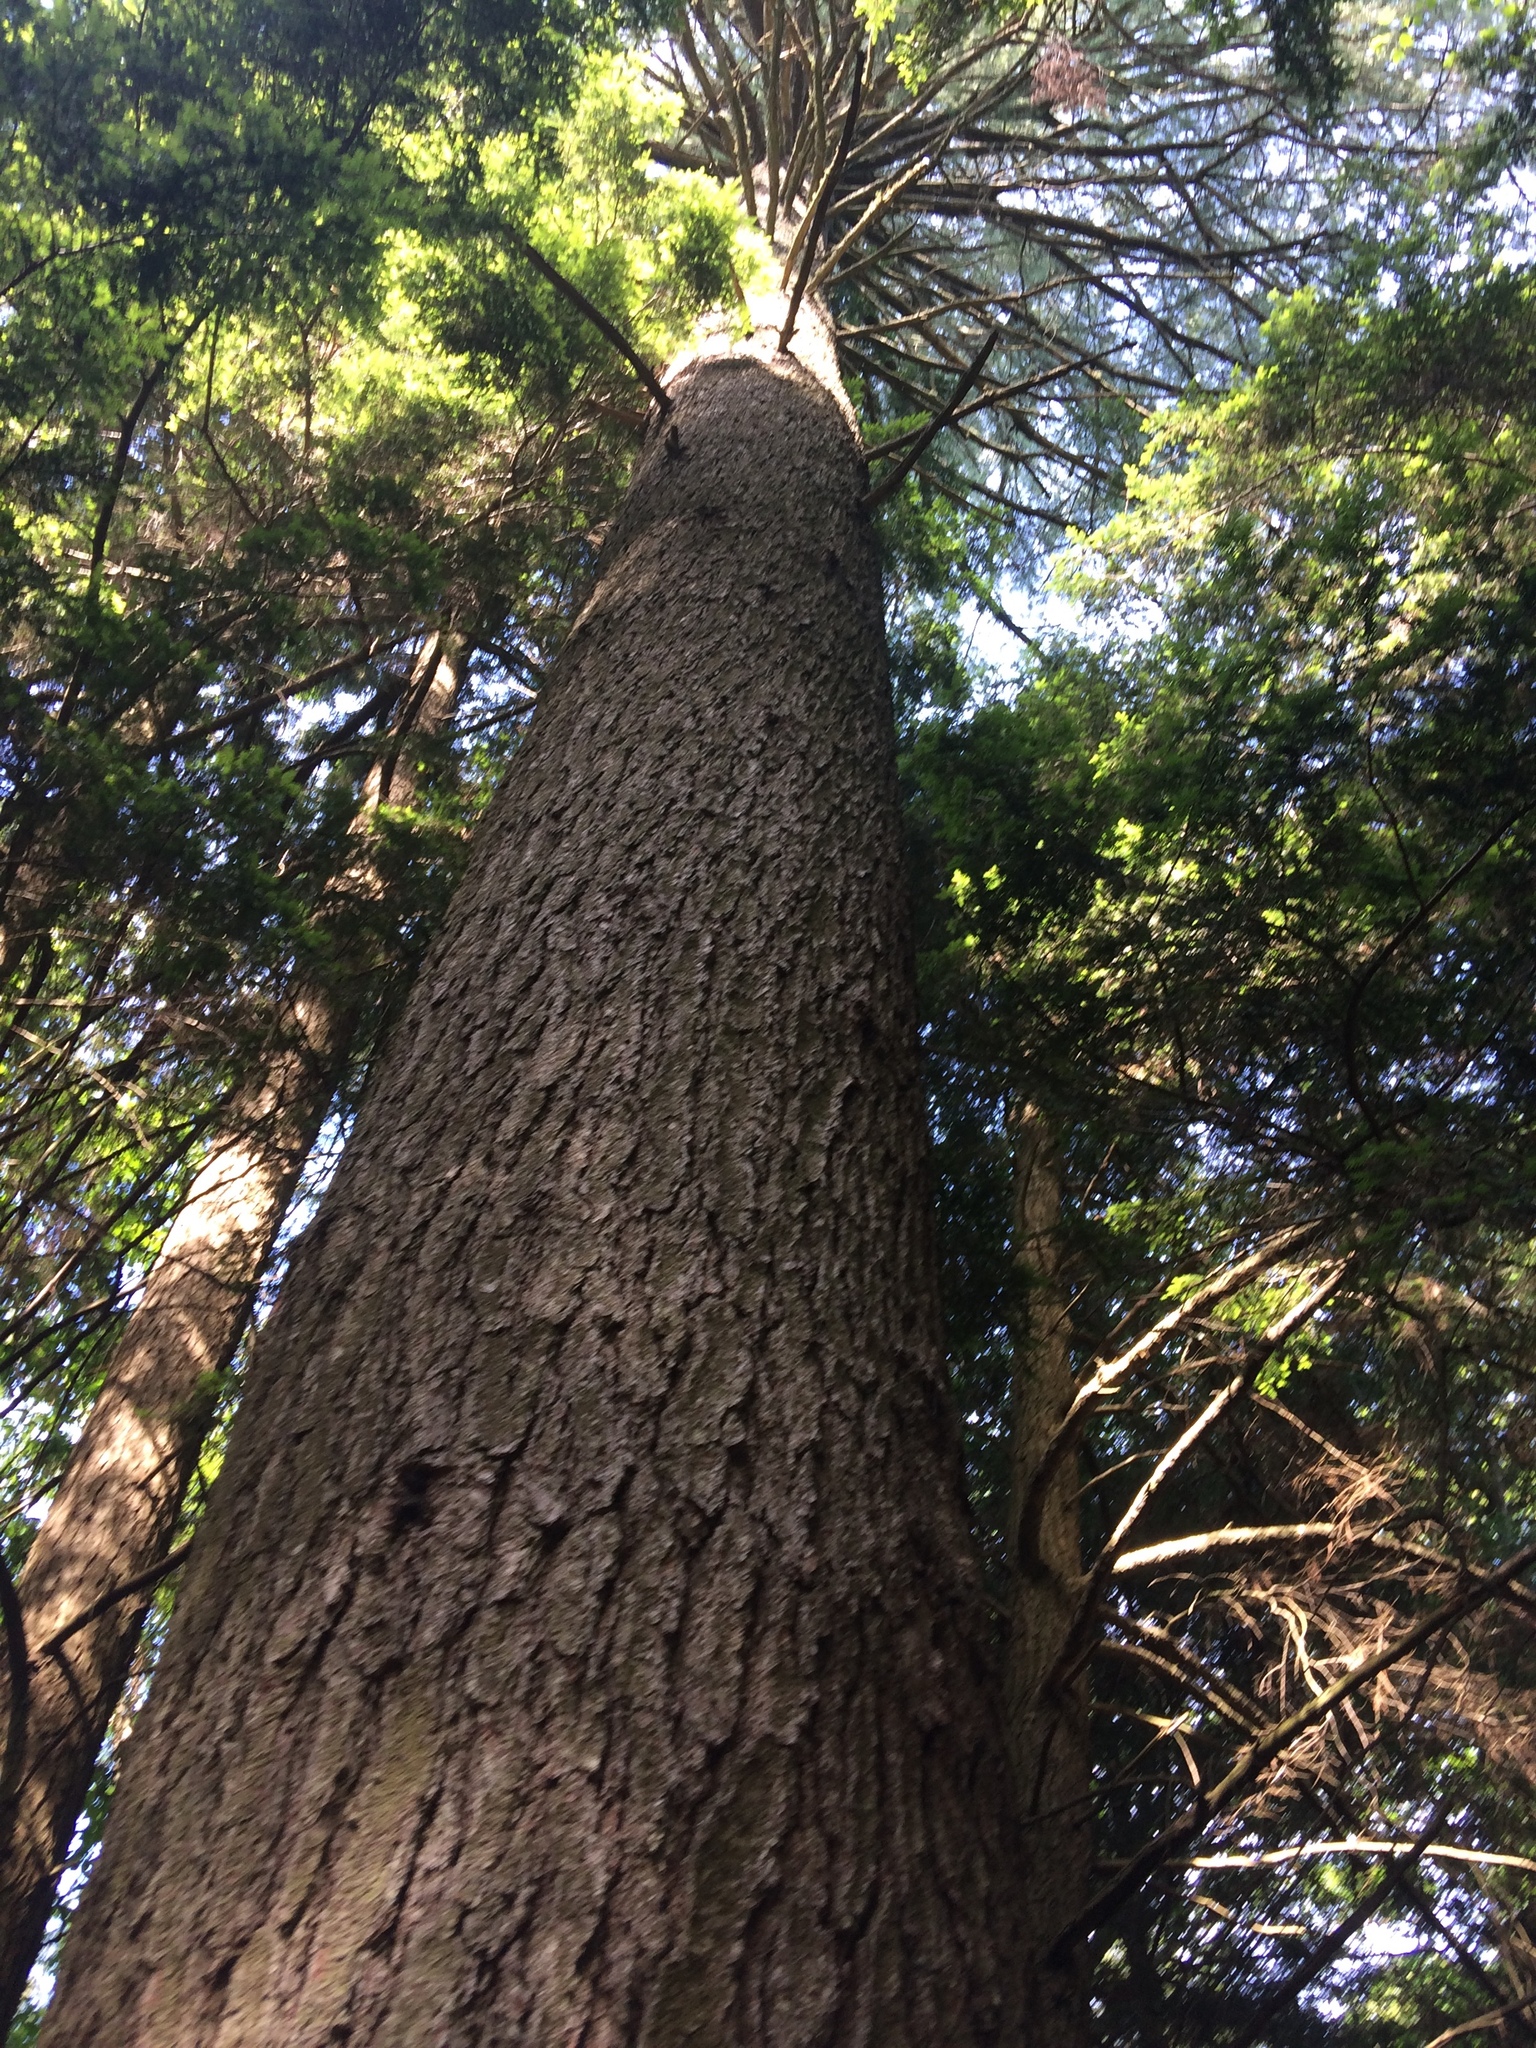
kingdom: Plantae
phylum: Tracheophyta
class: Pinopsida
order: Pinales
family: Pinaceae
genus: Pinus
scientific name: Pinus strobus
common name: Weymouth pine
